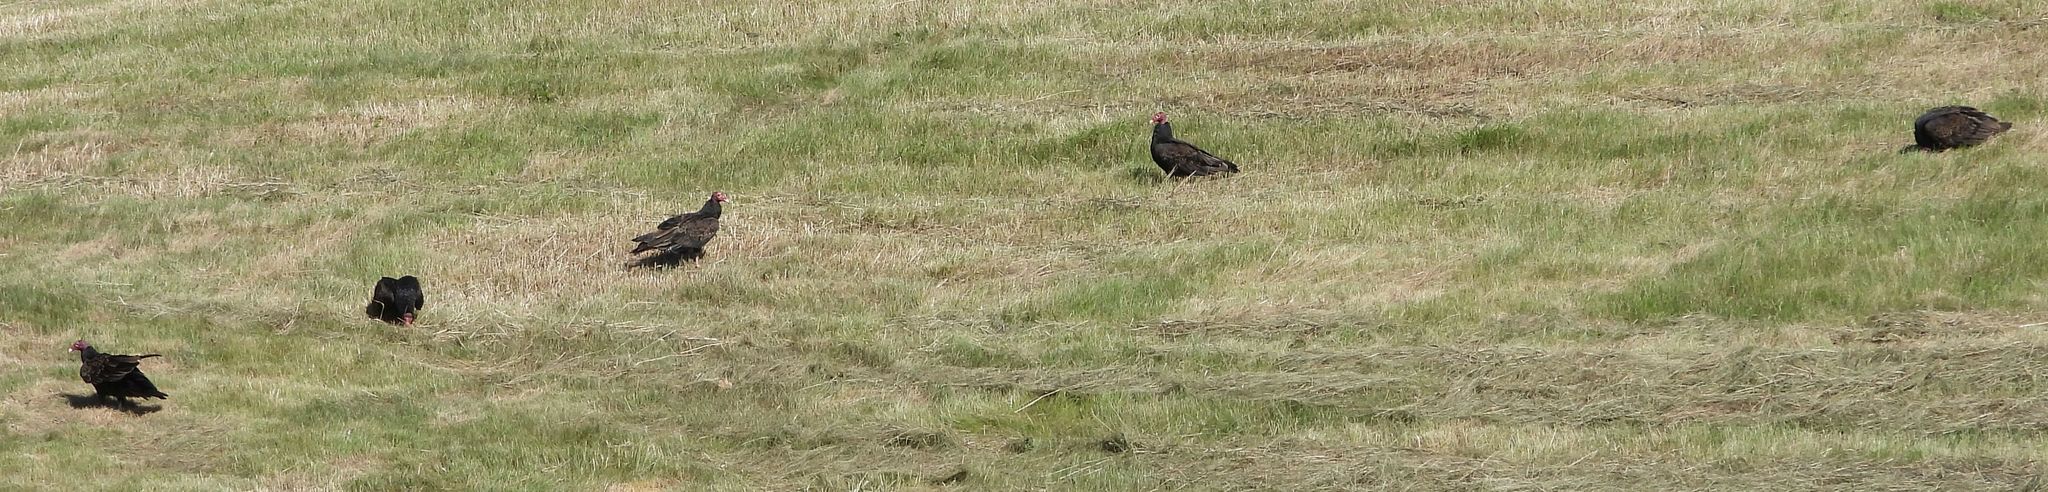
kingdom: Animalia
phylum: Chordata
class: Aves
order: Accipitriformes
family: Cathartidae
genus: Cathartes
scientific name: Cathartes aura
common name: Turkey vulture
